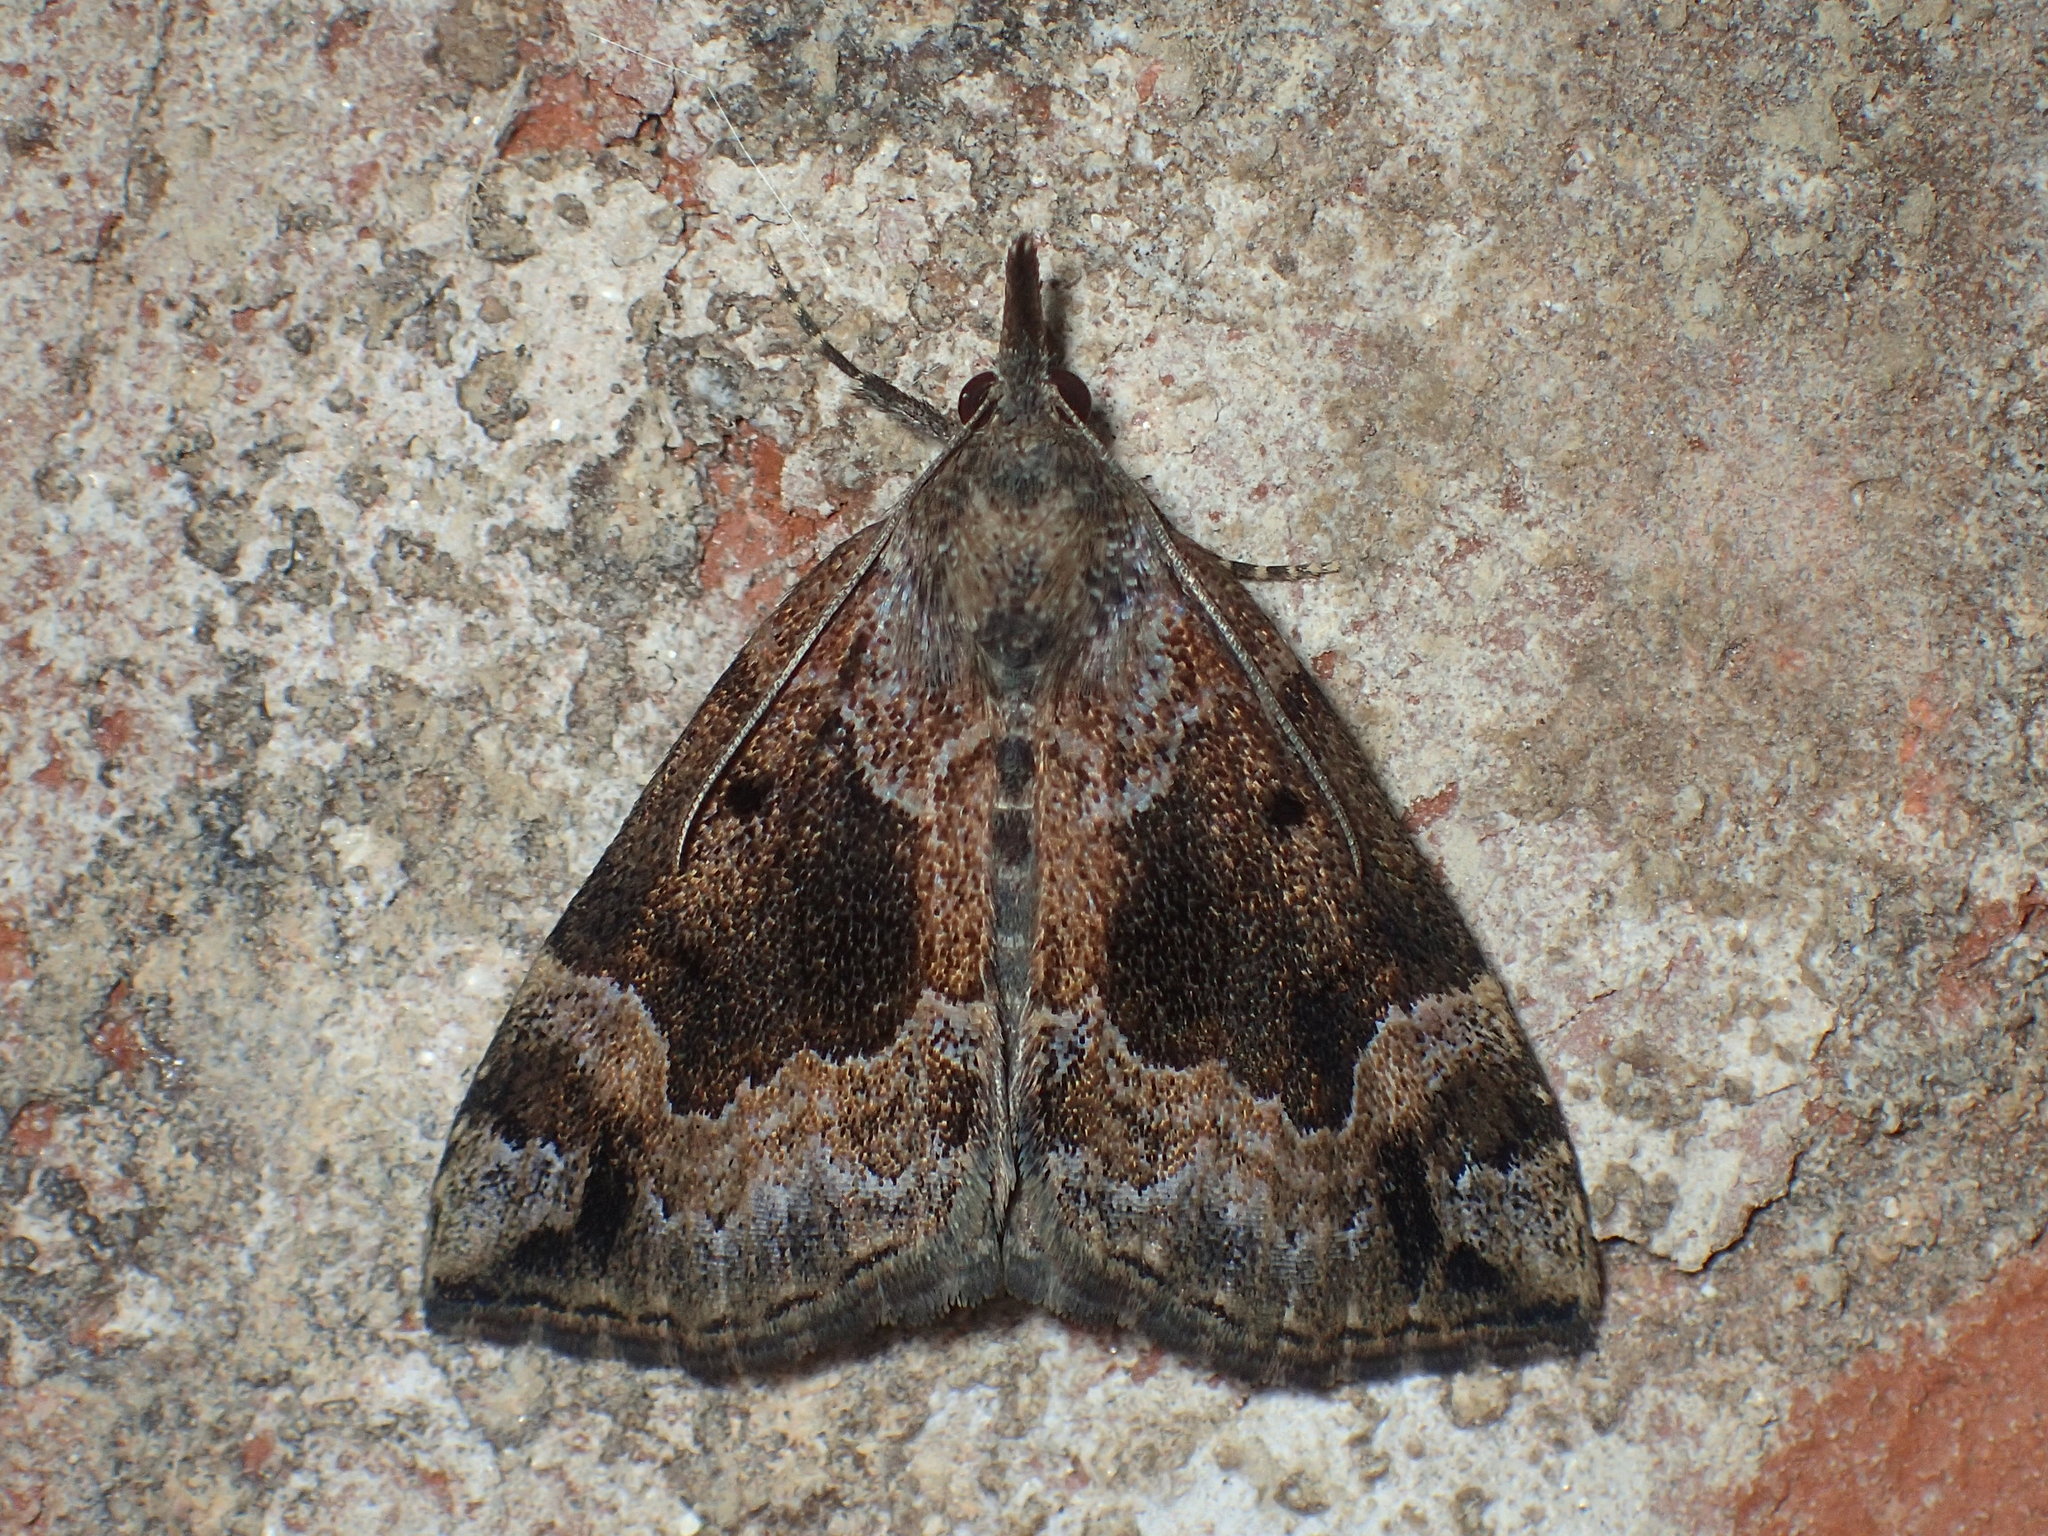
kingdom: Animalia
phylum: Arthropoda
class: Insecta
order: Lepidoptera
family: Erebidae
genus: Hypena
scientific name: Hypena palparia
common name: Mottled bomolocha moth
